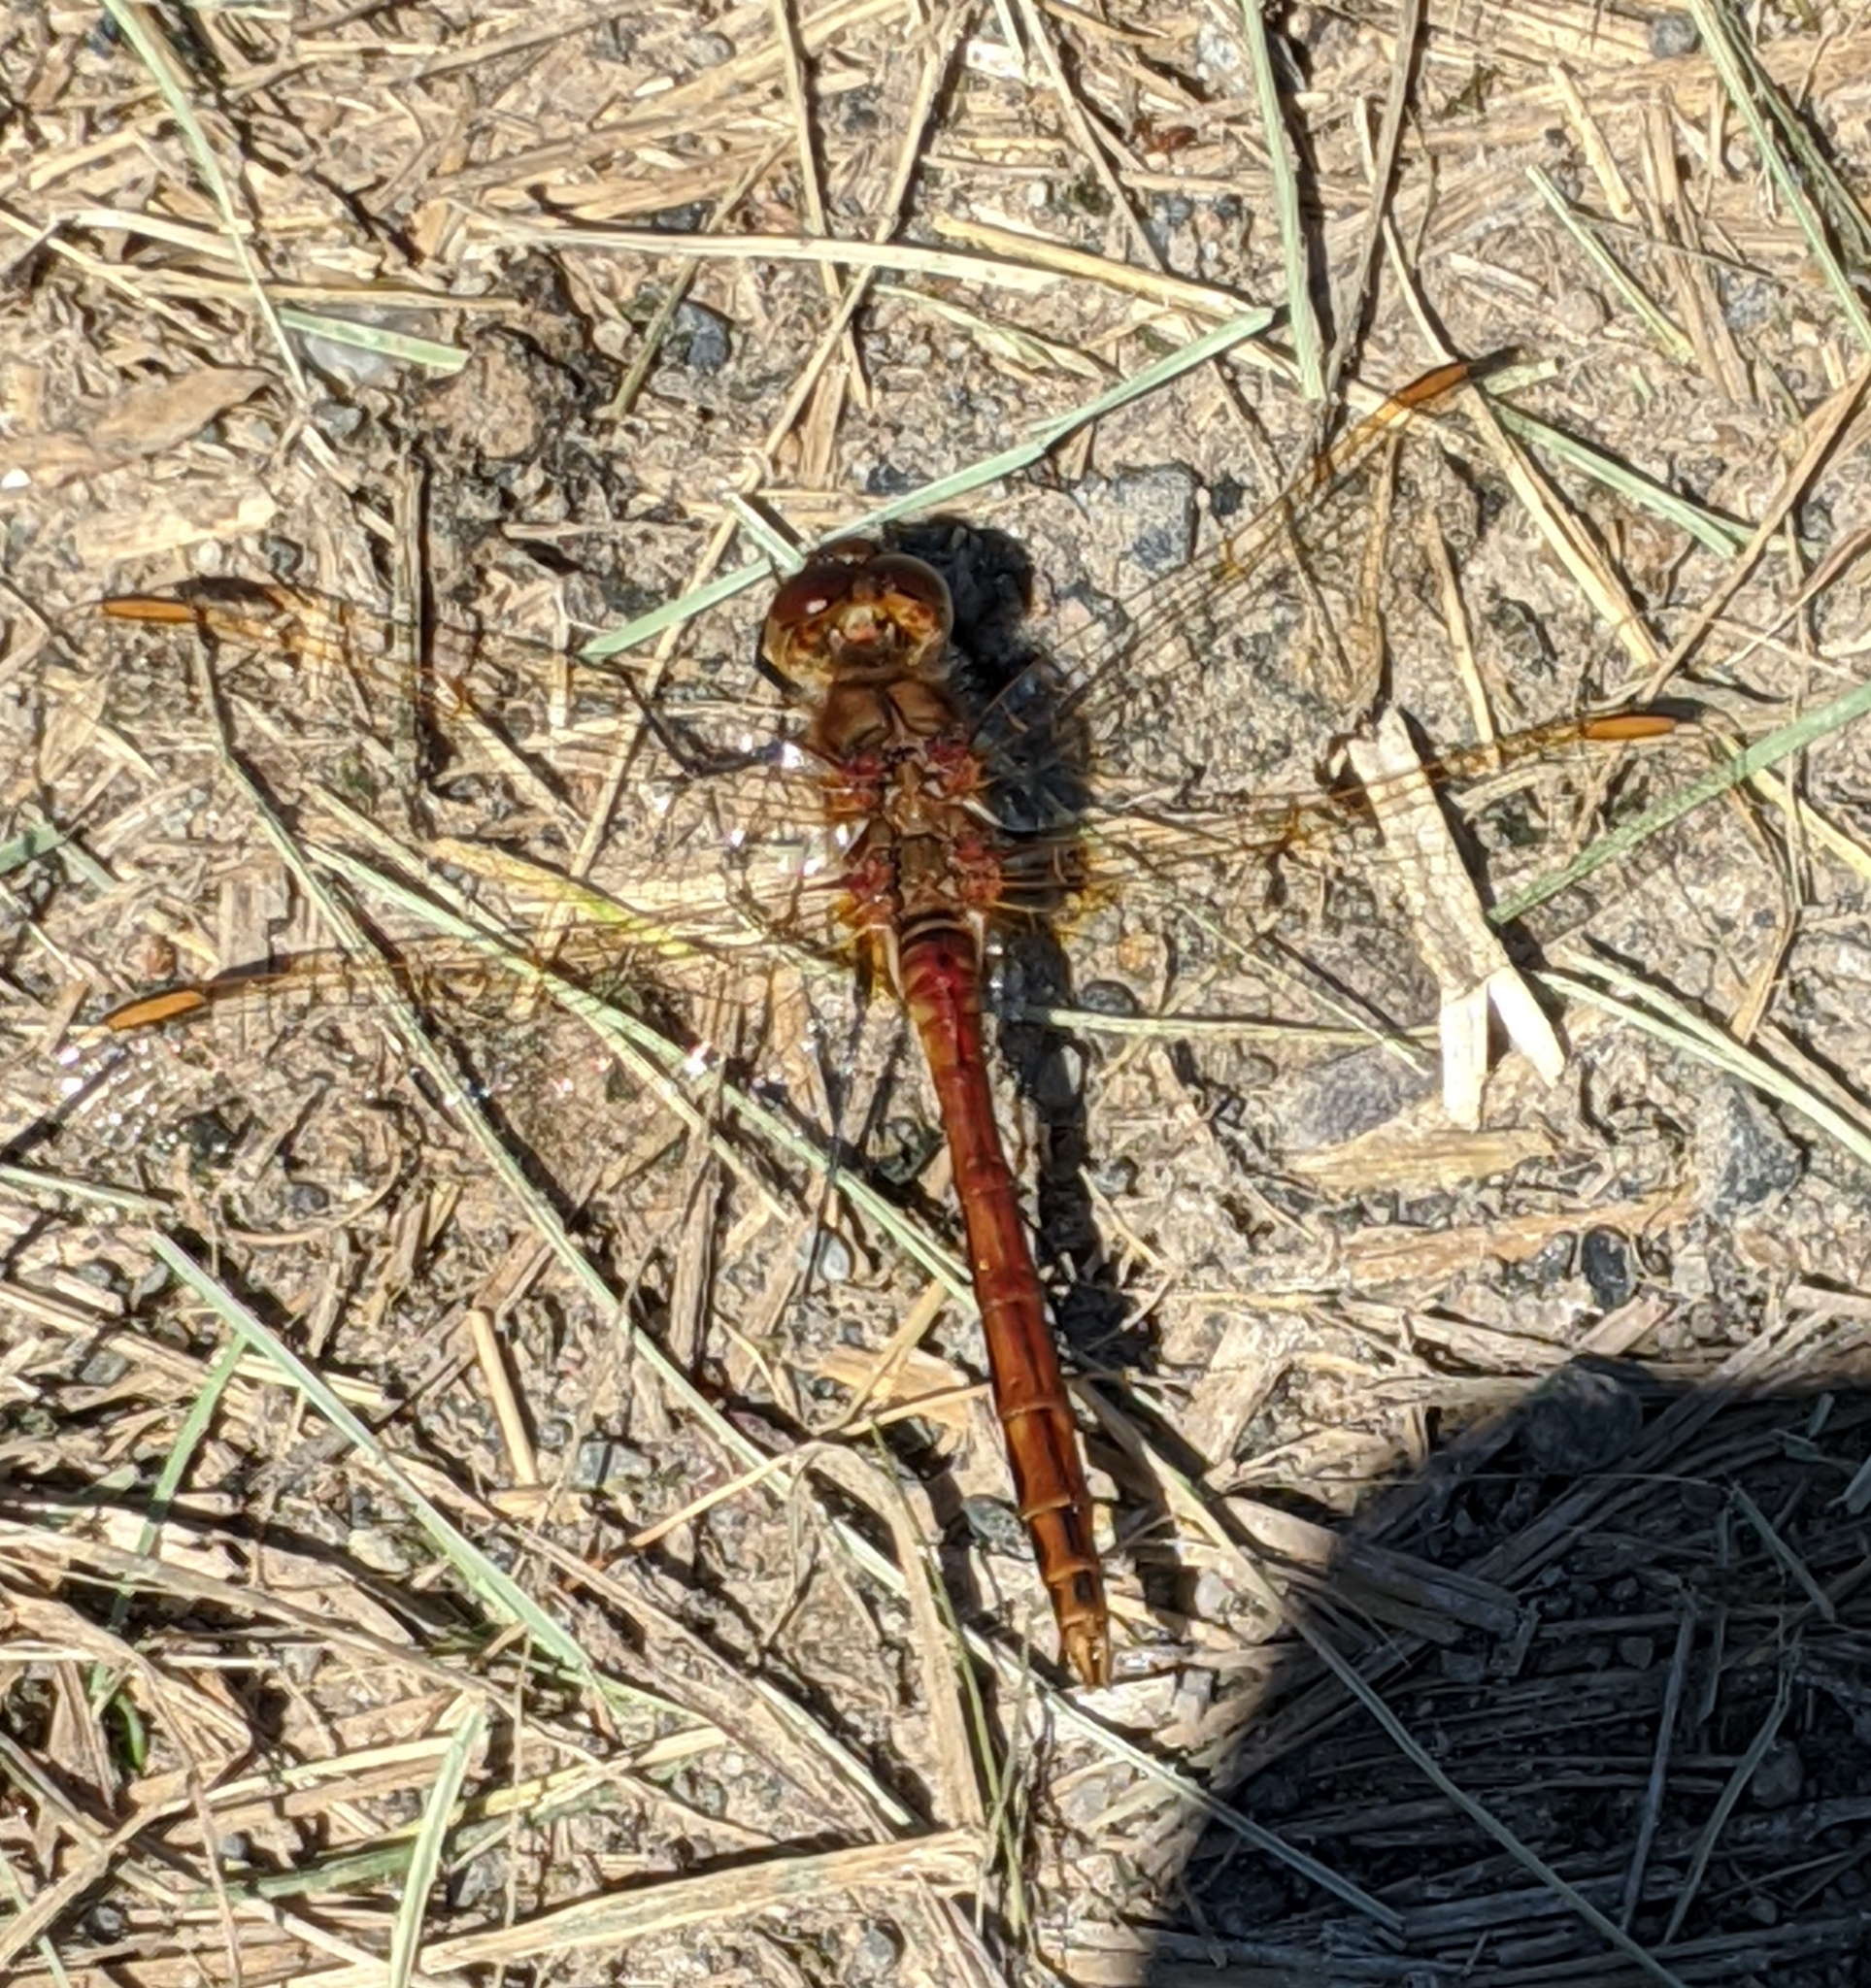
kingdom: Animalia
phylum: Arthropoda
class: Insecta
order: Odonata
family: Libellulidae
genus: Sympetrum
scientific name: Sympetrum costiferum
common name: Saffron-winged meadowhawk
